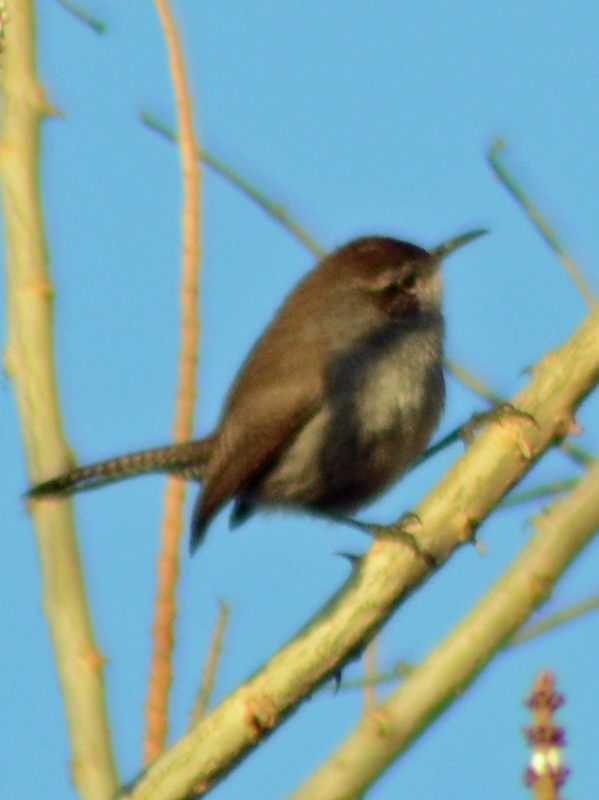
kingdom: Animalia
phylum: Chordata
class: Aves
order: Passeriformes
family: Troglodytidae
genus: Thryomanes
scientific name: Thryomanes bewickii
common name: Bewick's wren
